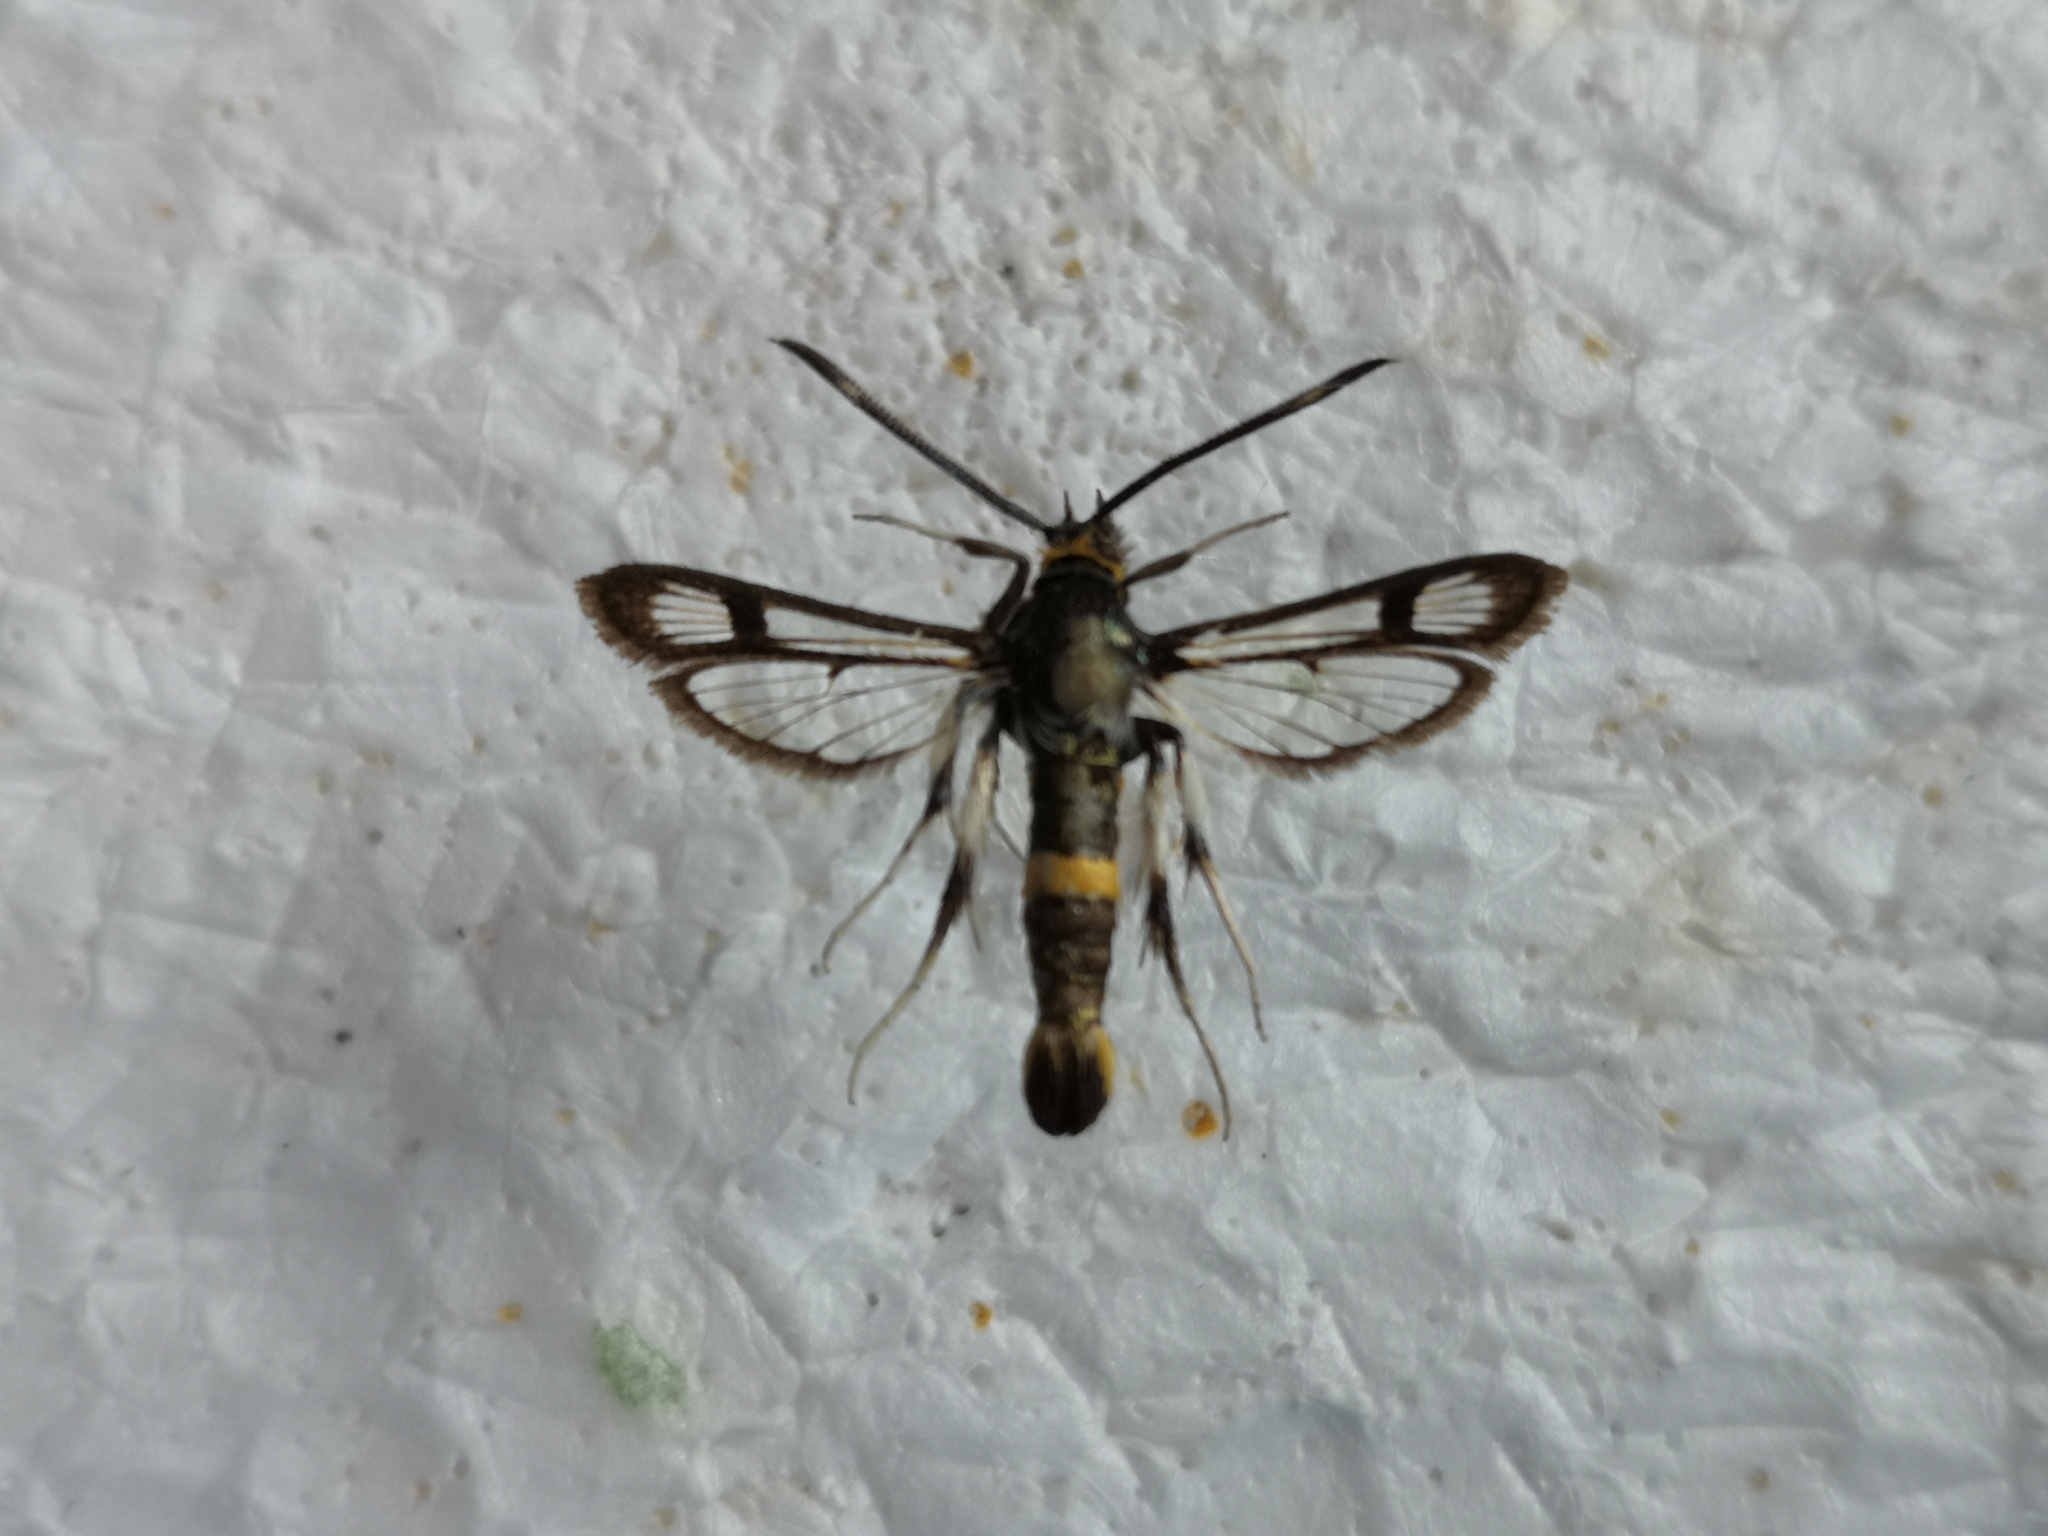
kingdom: Animalia
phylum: Arthropoda
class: Insecta
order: Lepidoptera
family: Sesiidae
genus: Pyropteron
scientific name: Pyropteron pipiziformis
